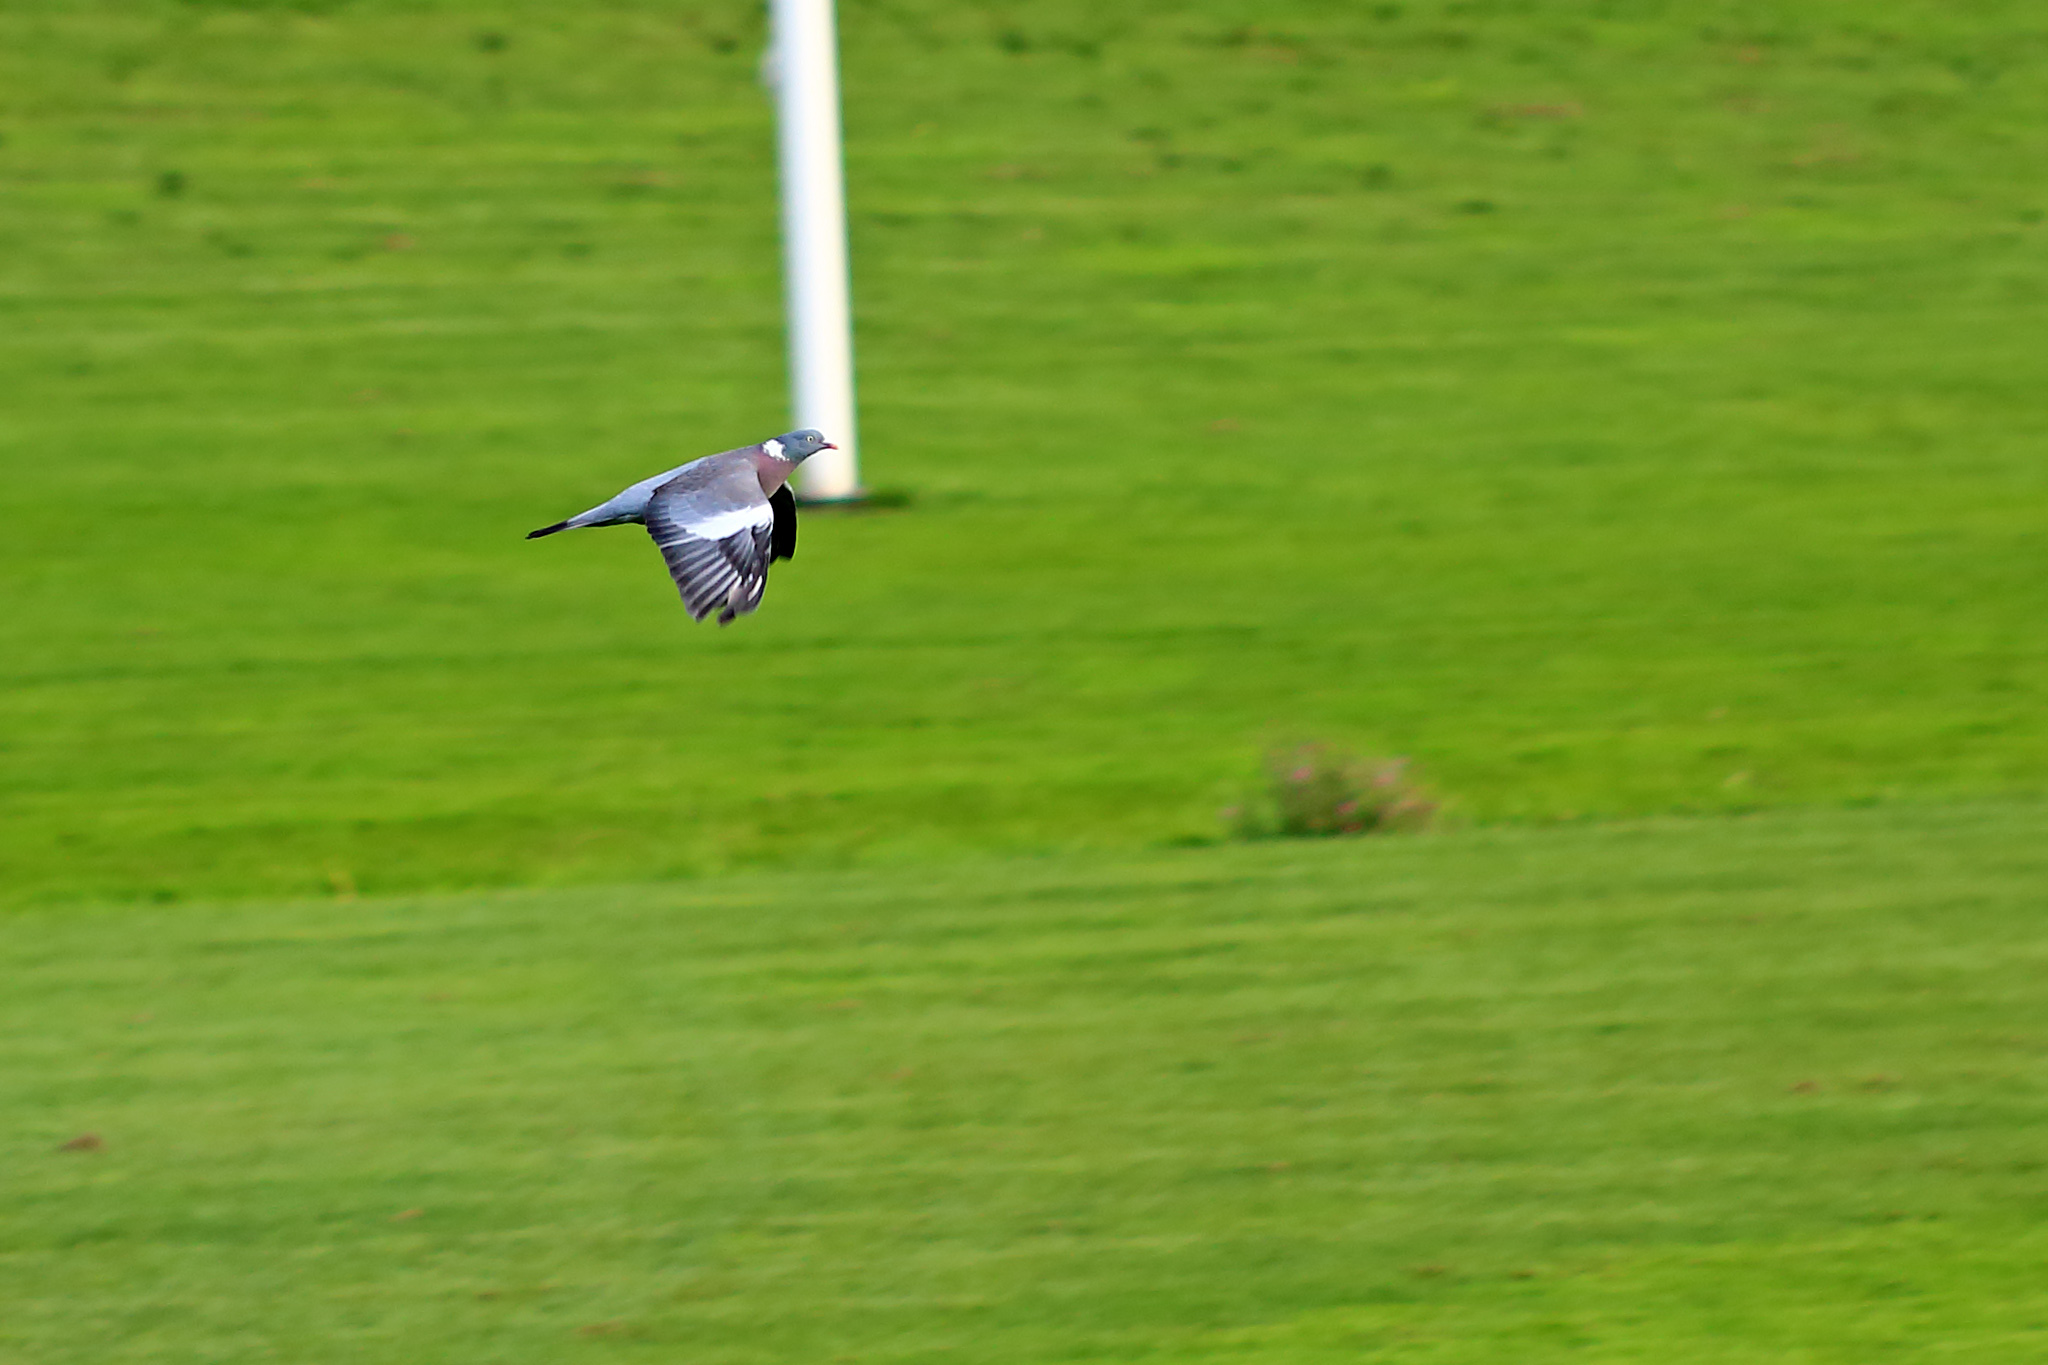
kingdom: Animalia
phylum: Chordata
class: Aves
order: Columbiformes
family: Columbidae
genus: Columba
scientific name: Columba palumbus
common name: Common wood pigeon
